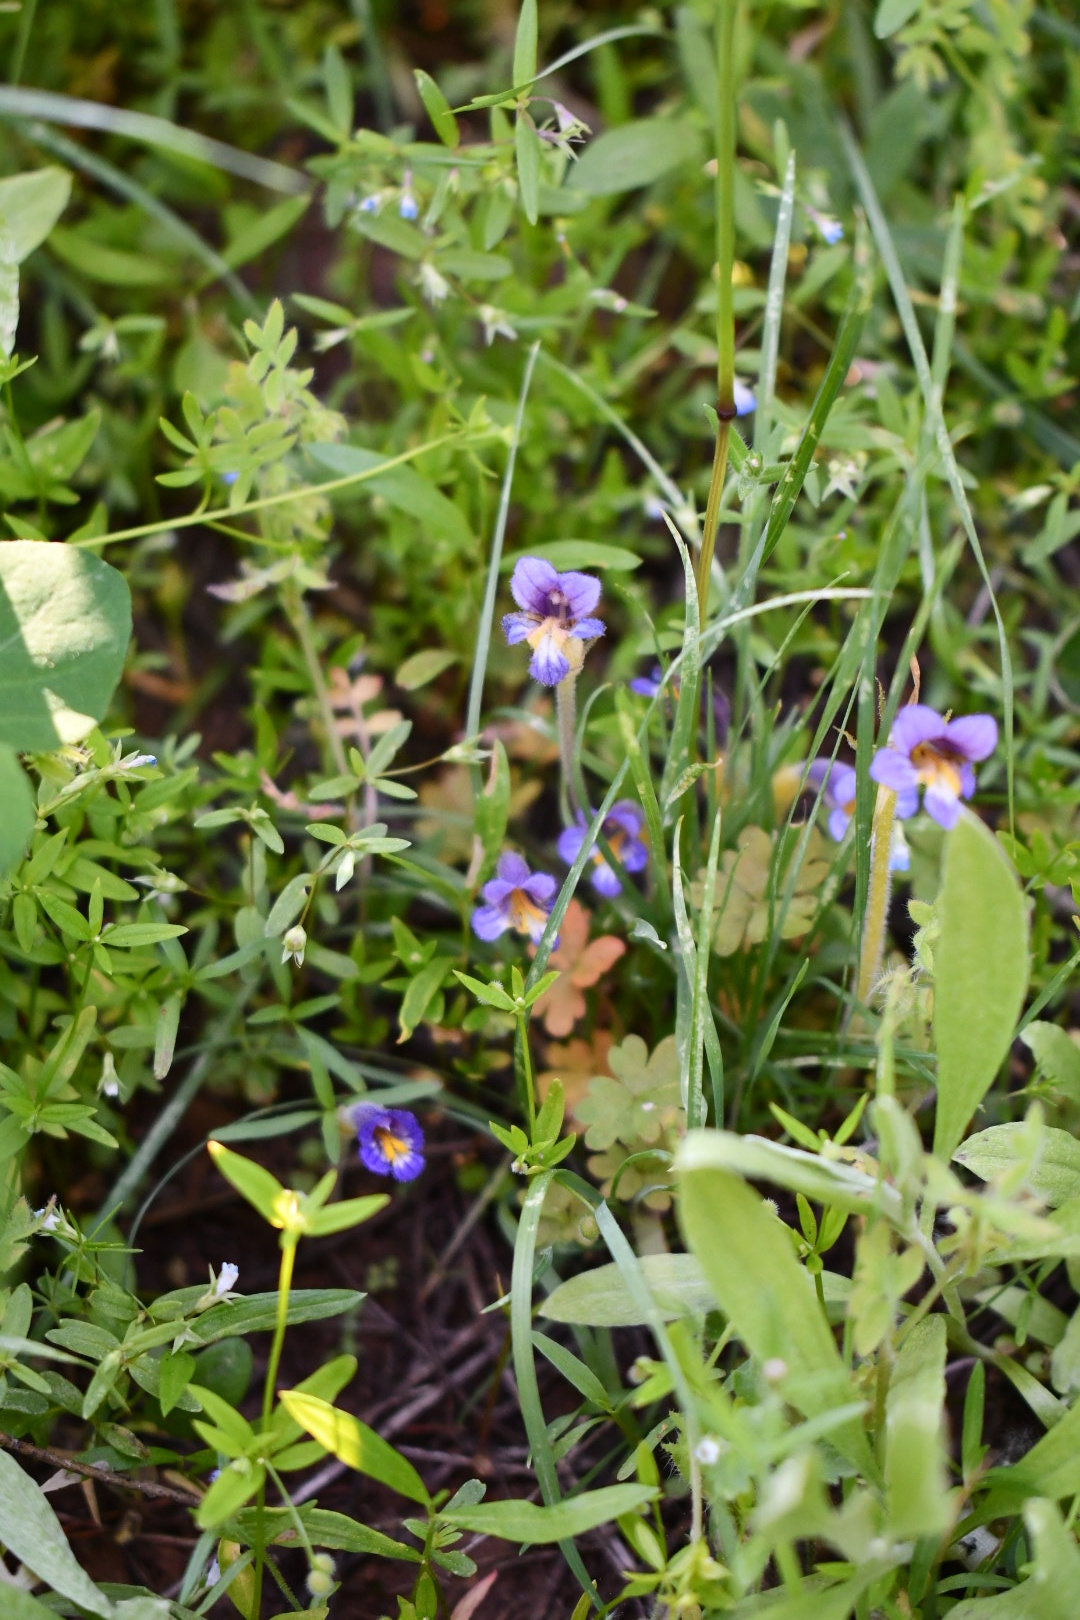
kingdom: Plantae
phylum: Tracheophyta
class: Magnoliopsida
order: Lamiales
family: Orobanchaceae
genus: Aphyllon
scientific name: Aphyllon uniflorum
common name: One-flowered broomrape
